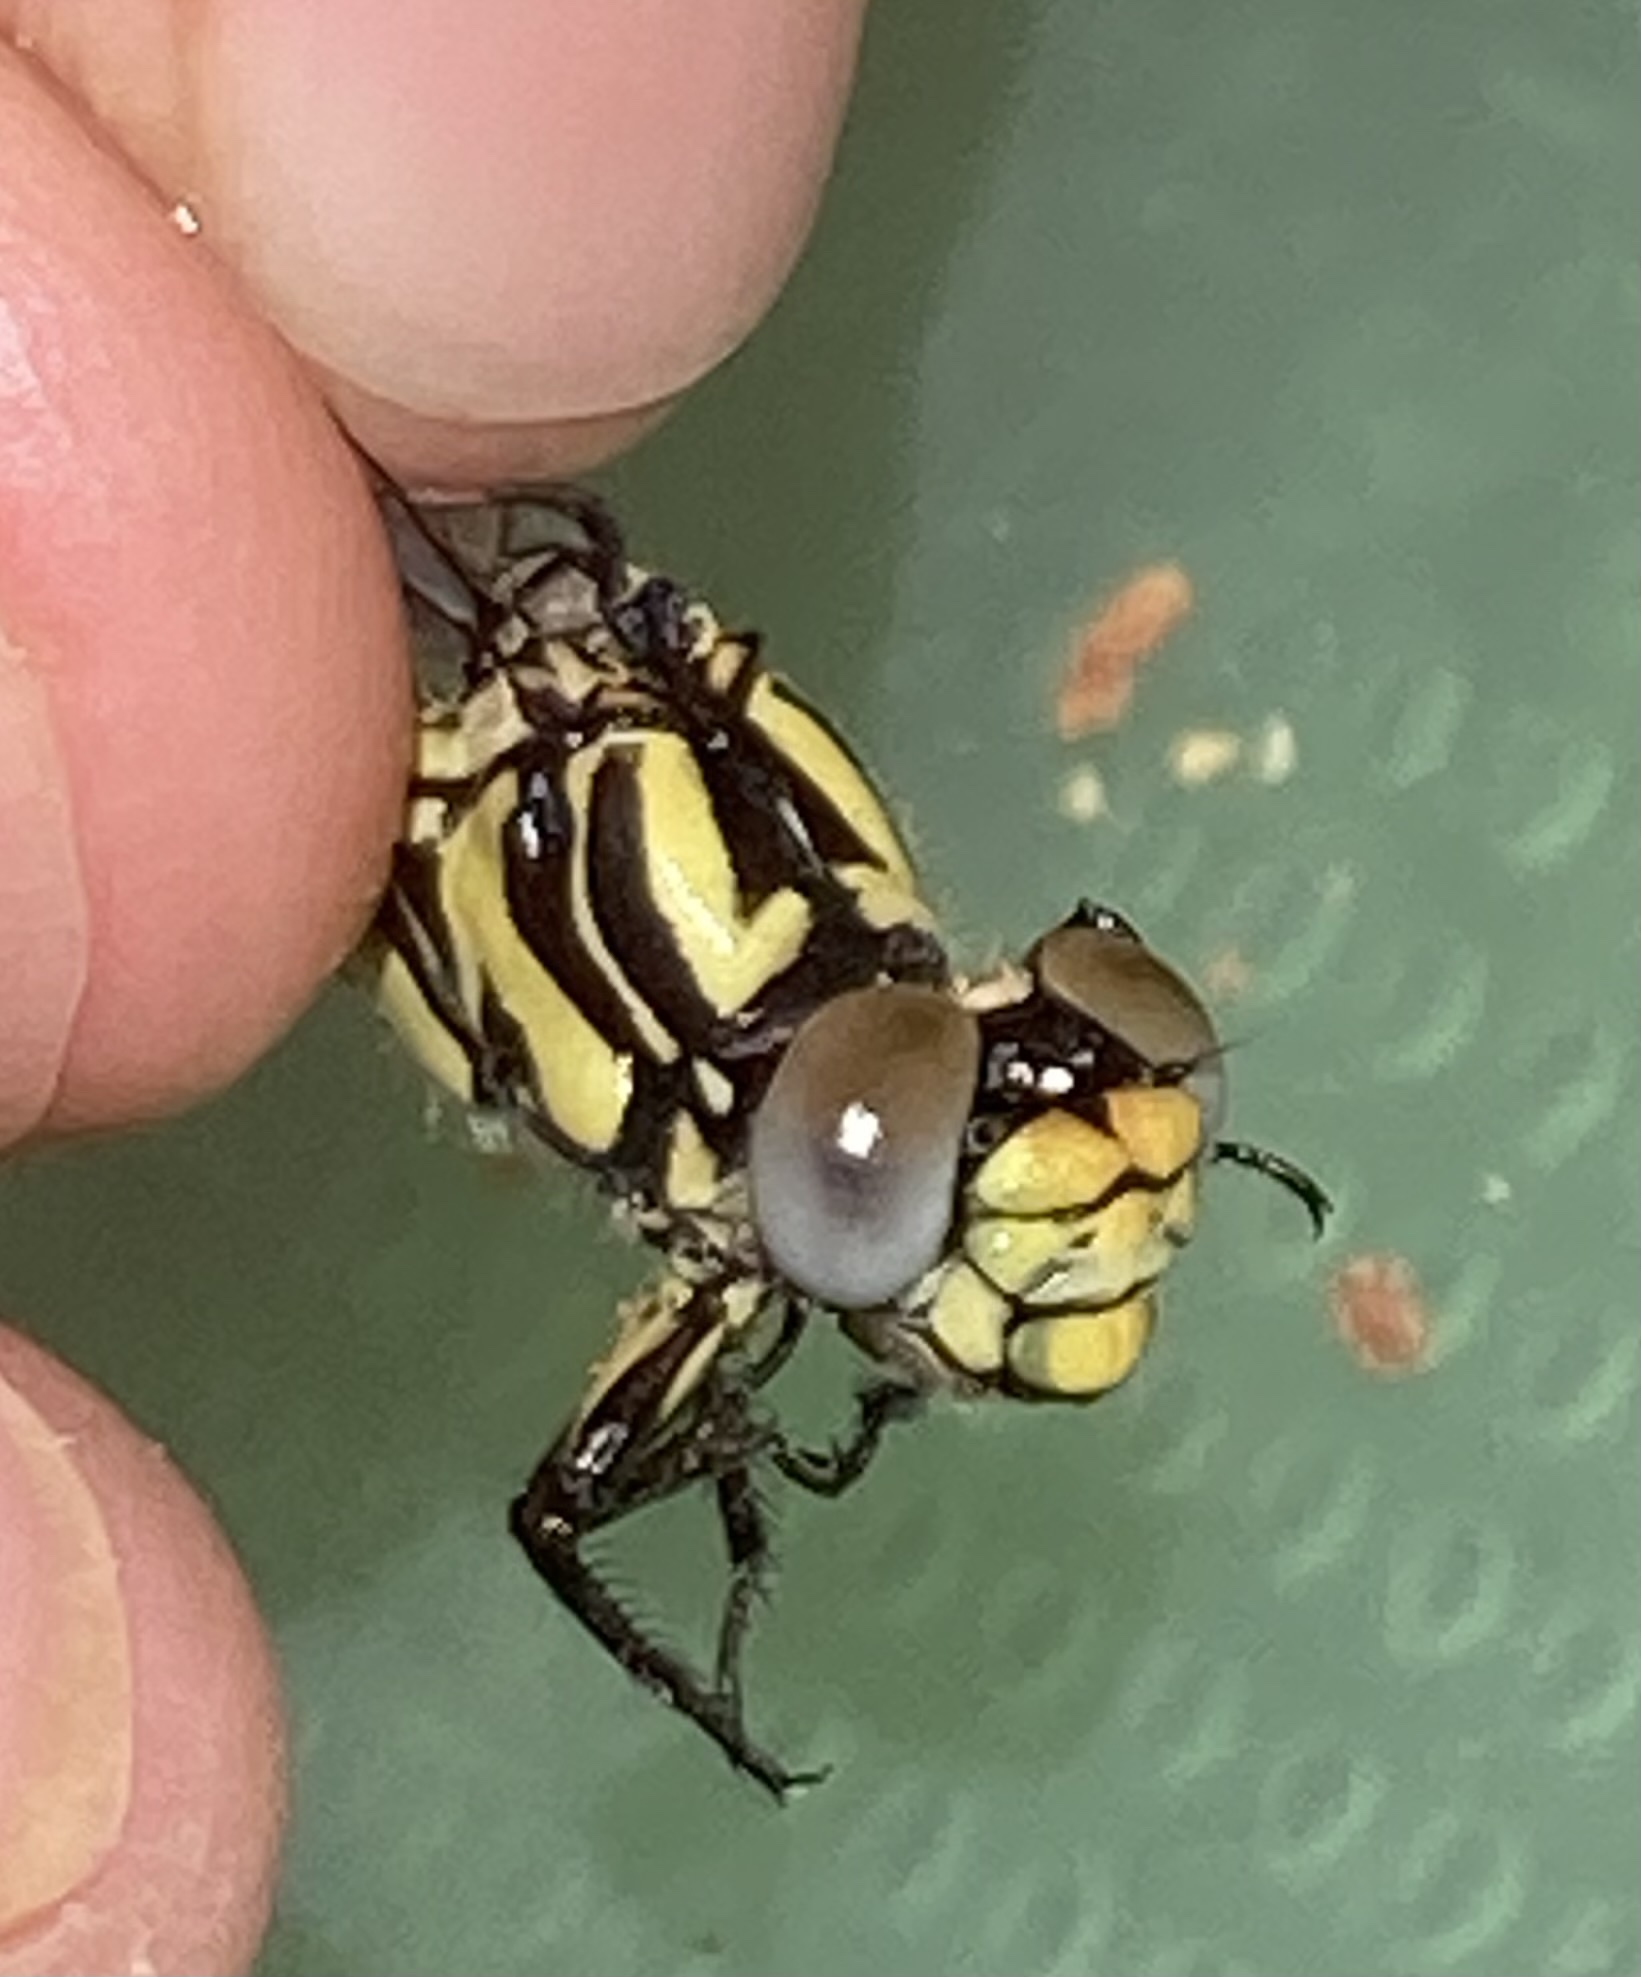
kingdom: Animalia
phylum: Arthropoda
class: Insecta
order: Odonata
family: Gomphidae
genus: Onychogomphus
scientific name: Onychogomphus uncatus
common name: Large pincertail
